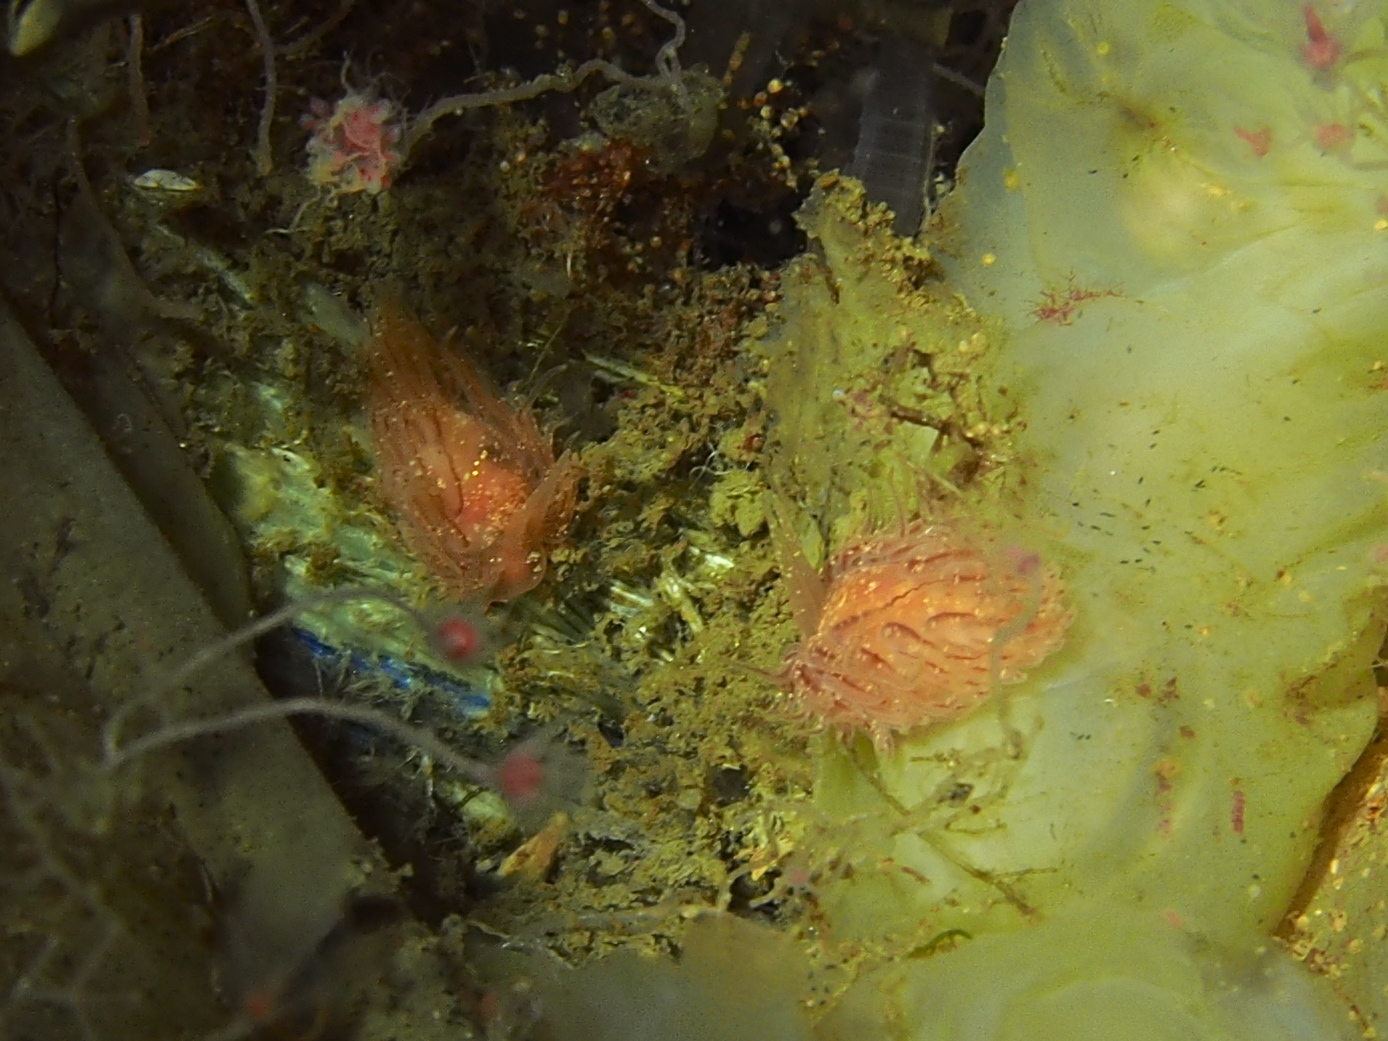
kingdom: Animalia
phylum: Mollusca
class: Gastropoda
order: Nudibranchia
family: Cumanotidae
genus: Cumanotus
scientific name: Cumanotus beaumonti
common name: Polyp aeolis
